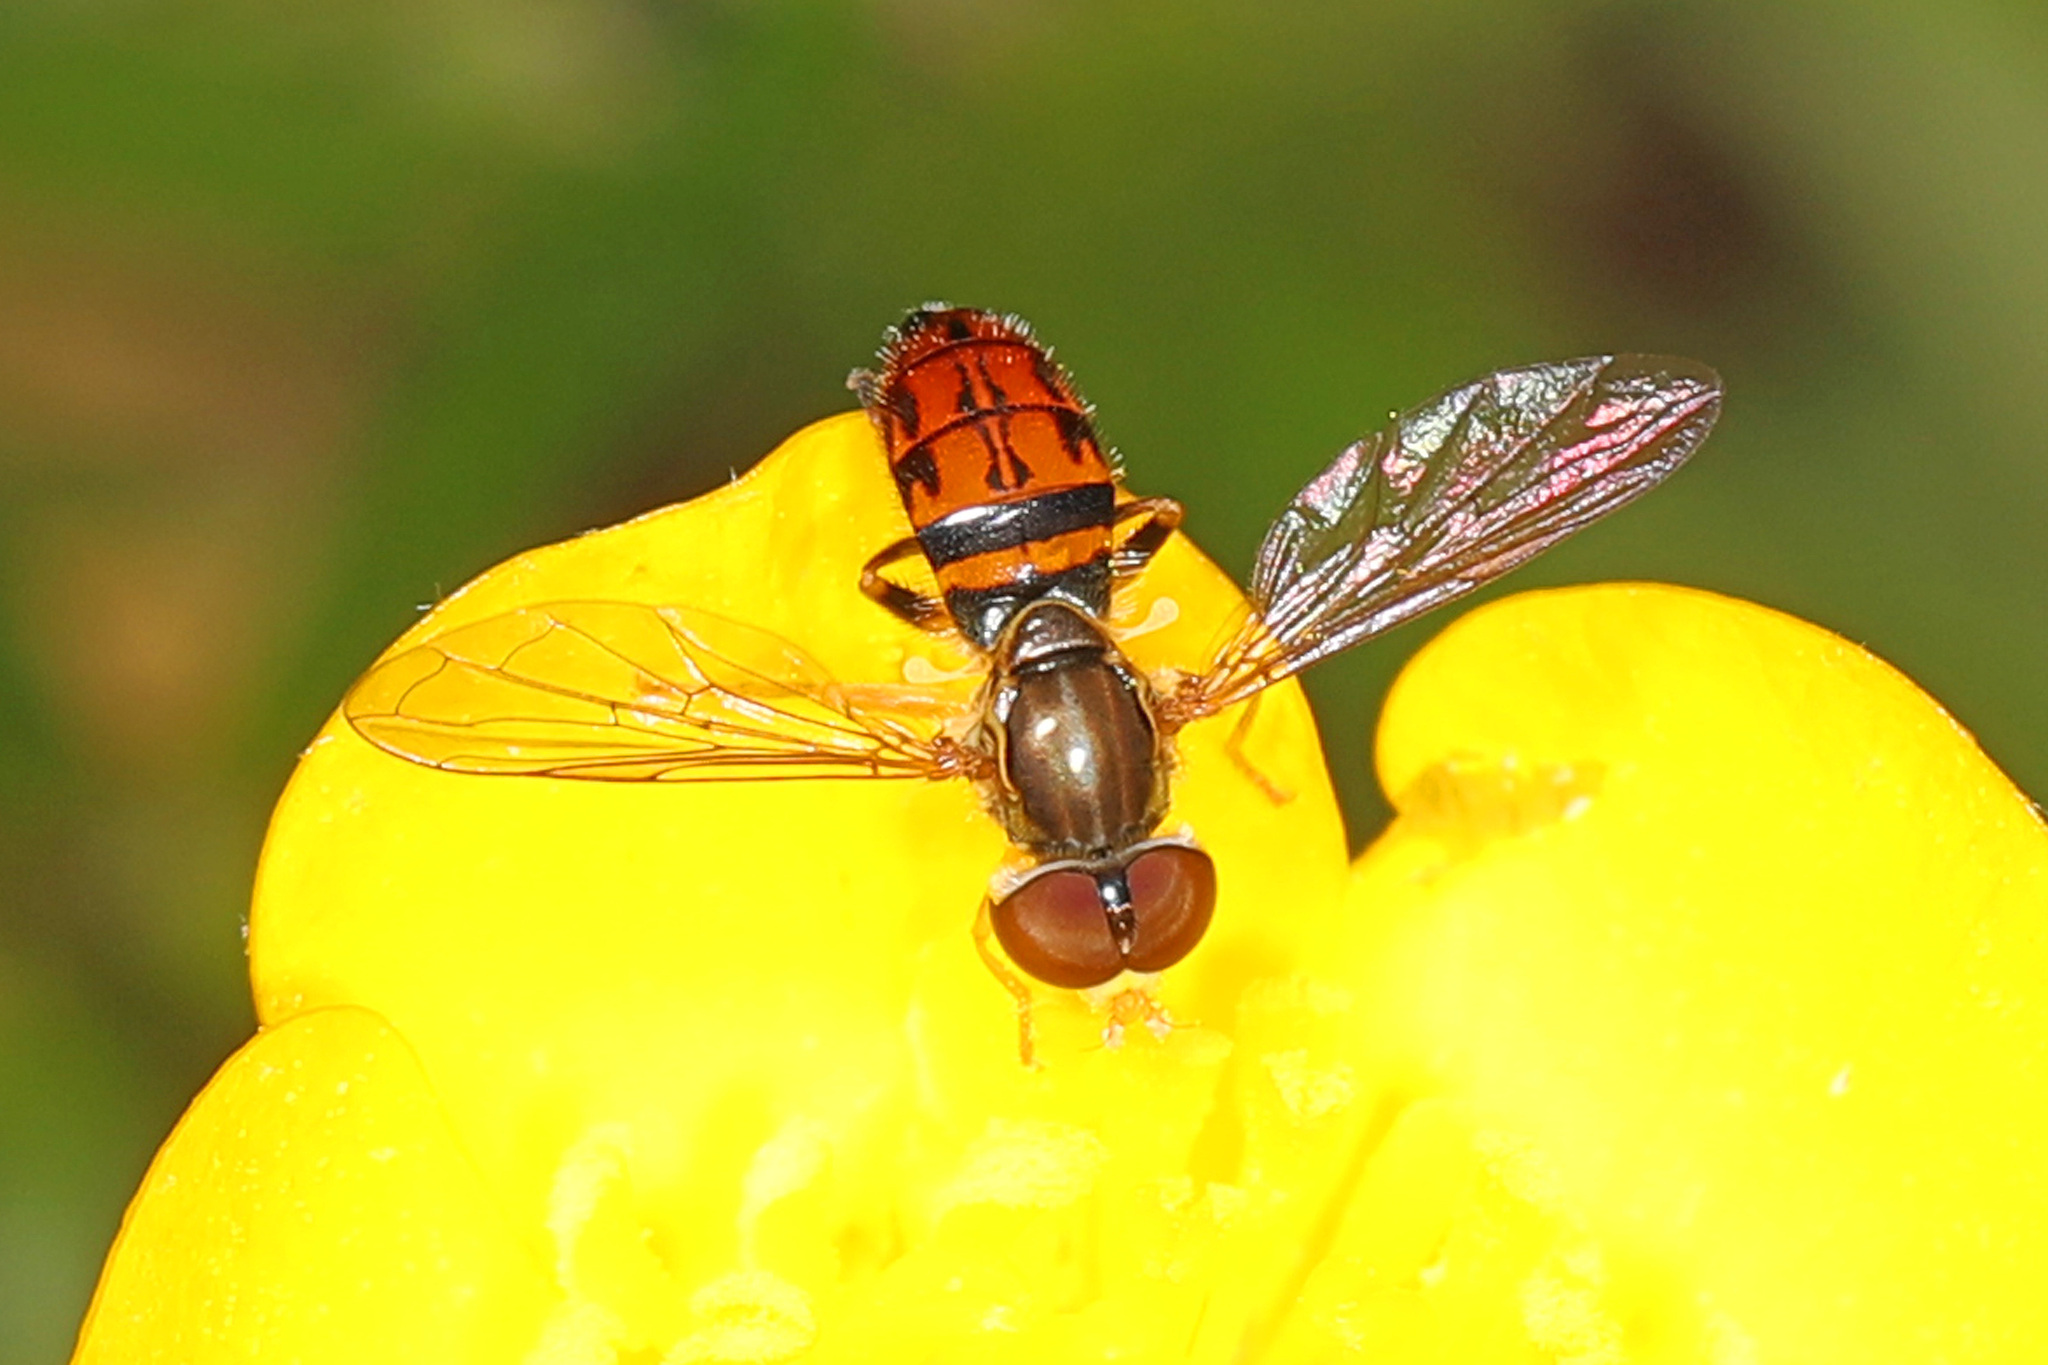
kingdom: Animalia
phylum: Arthropoda
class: Insecta
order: Diptera
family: Syrphidae
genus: Toxomerus
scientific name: Toxomerus boscii
